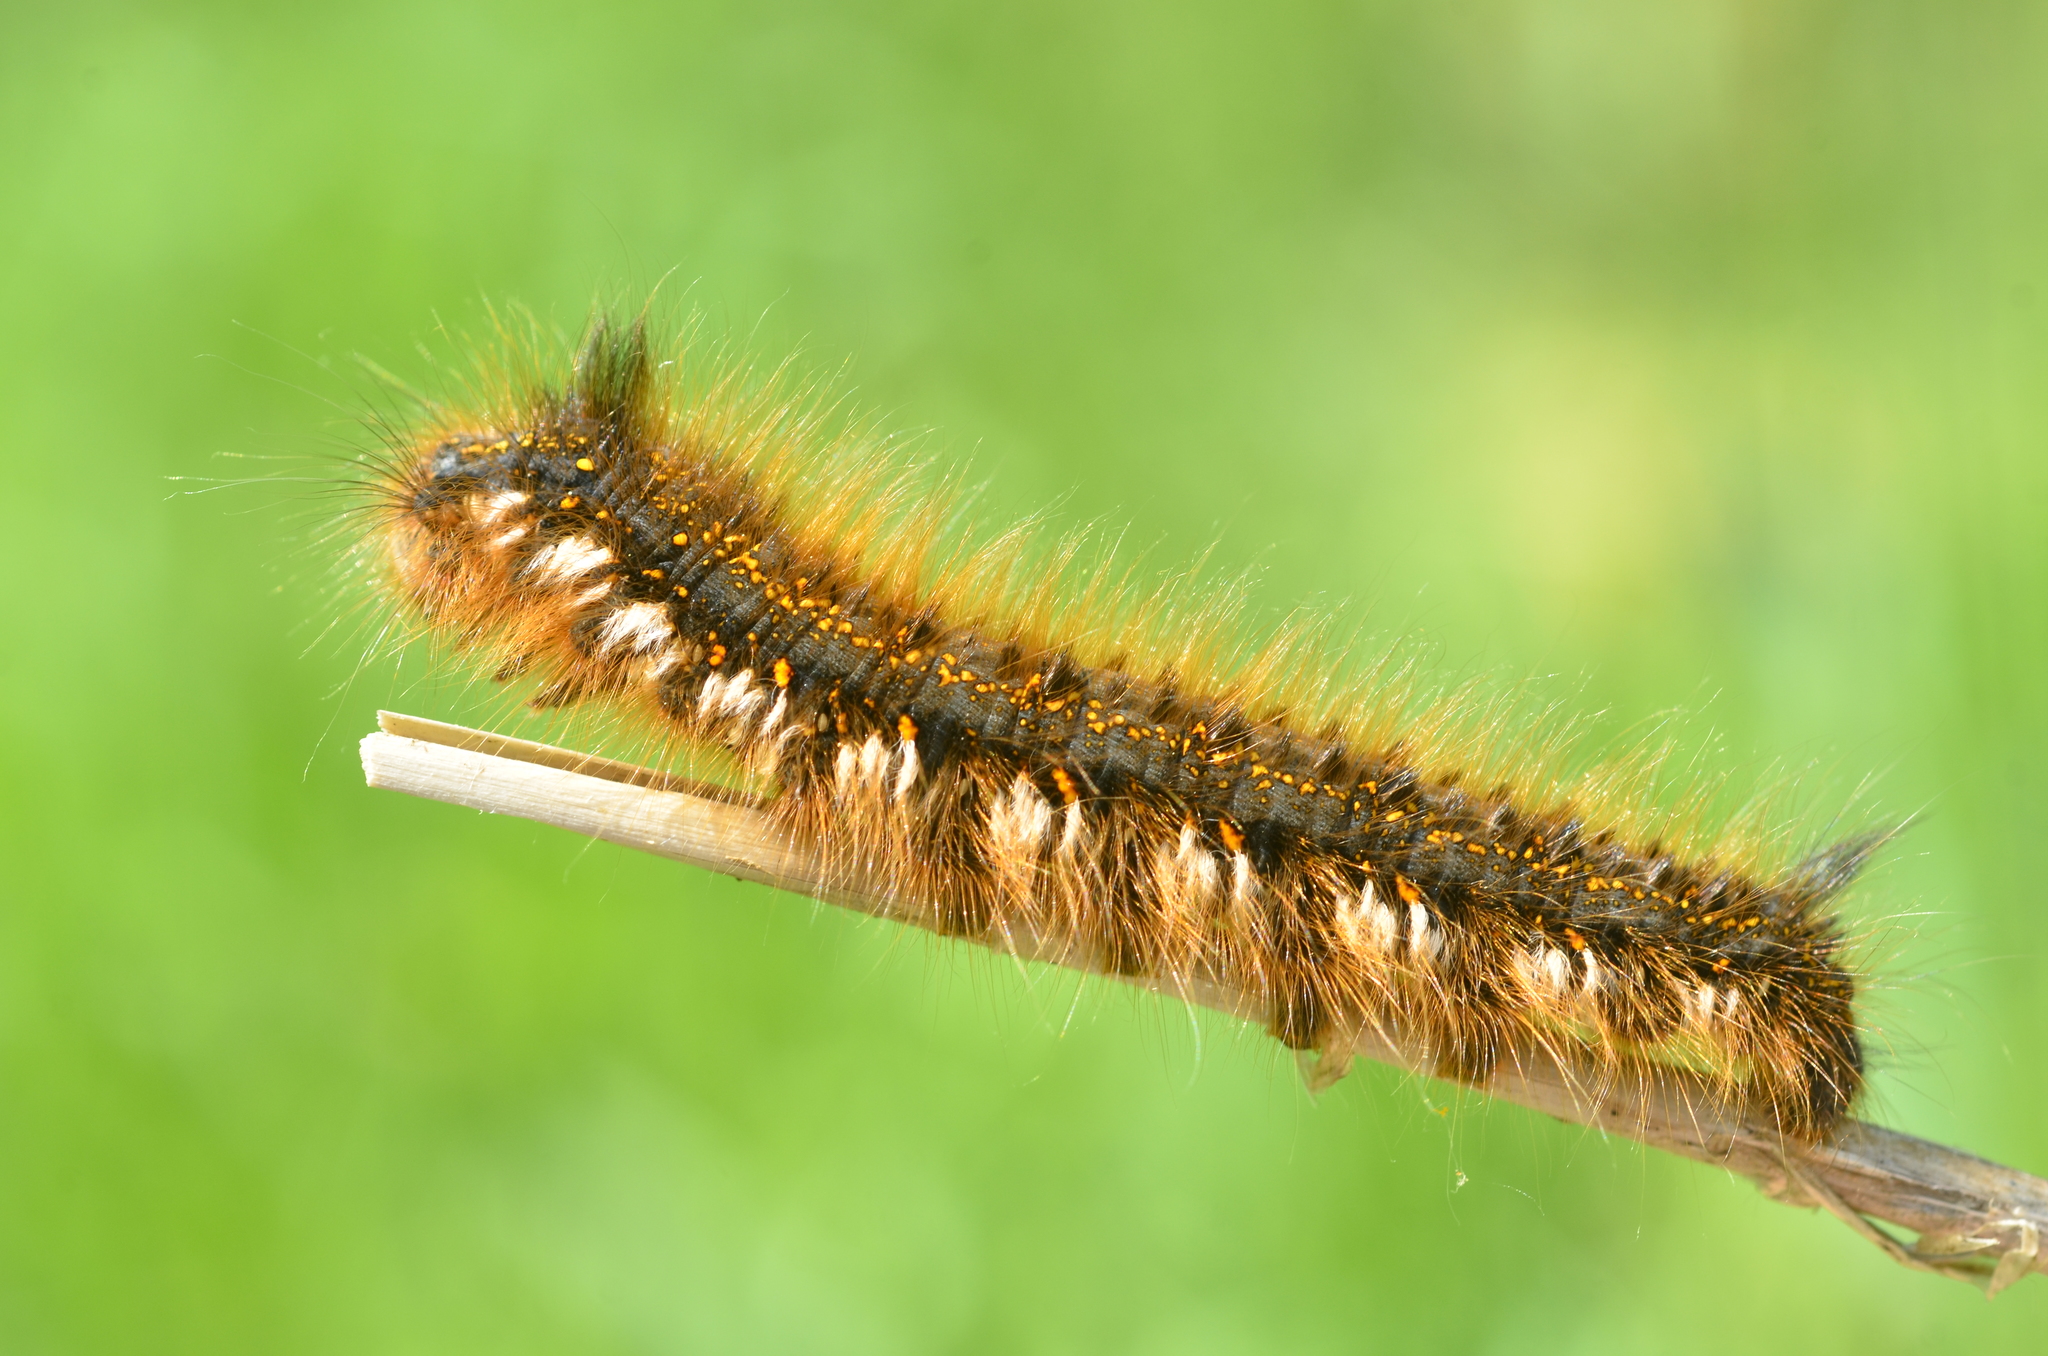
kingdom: Animalia
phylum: Arthropoda
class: Insecta
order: Lepidoptera
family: Lasiocampidae
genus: Euthrix
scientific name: Euthrix potatoria
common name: Drinker
